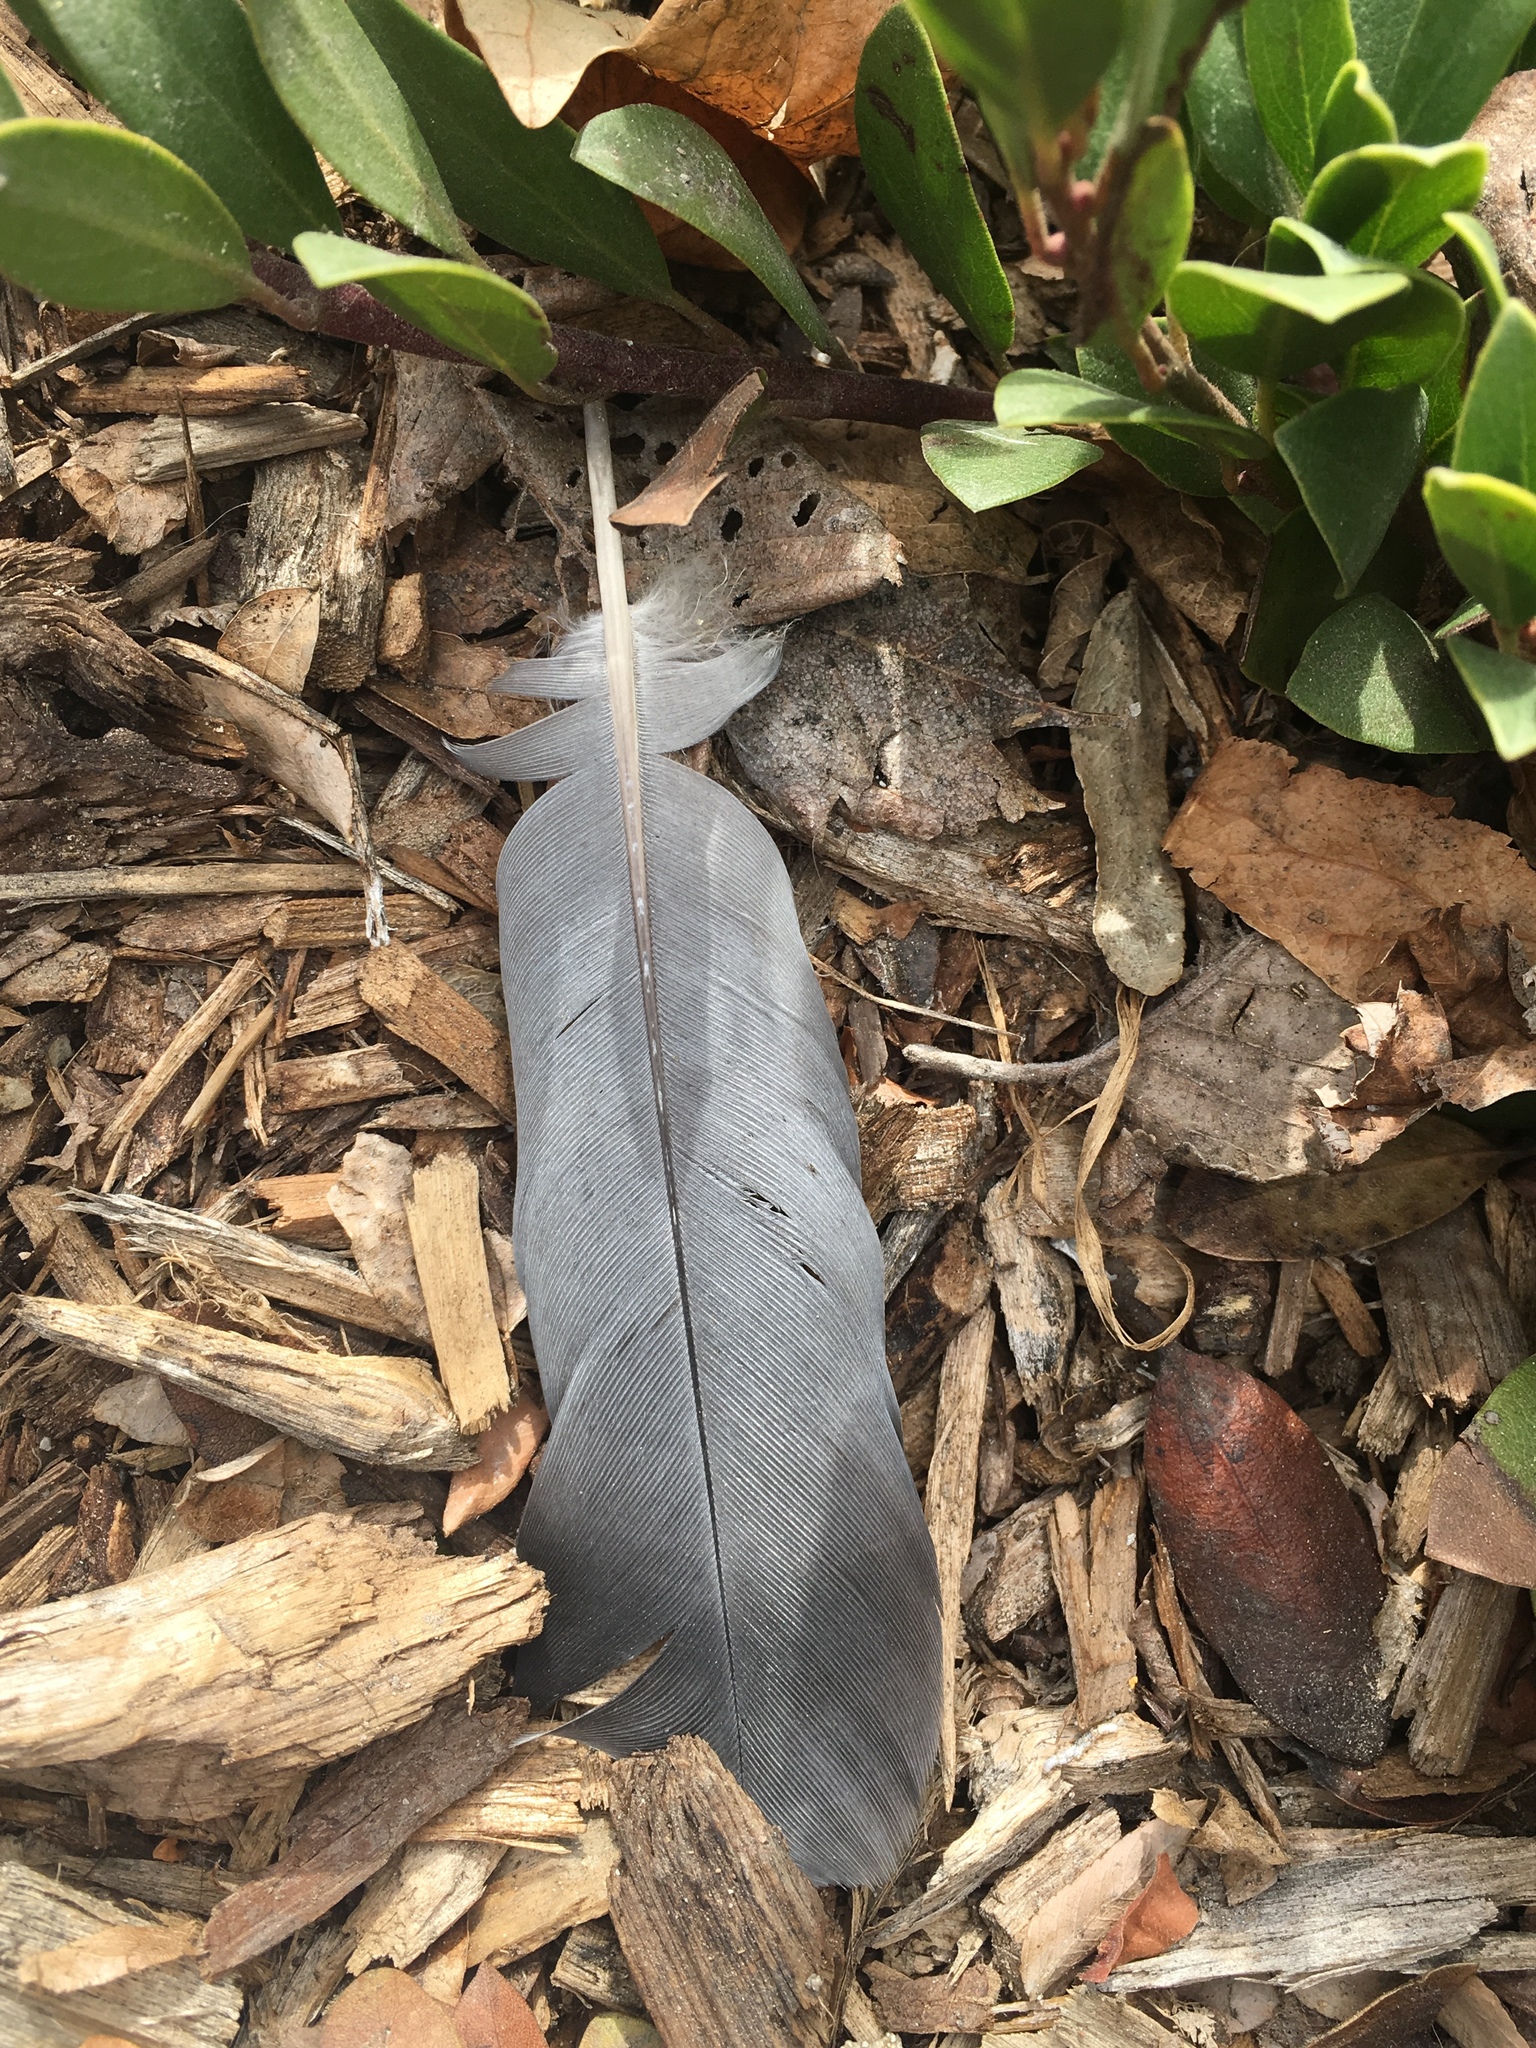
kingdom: Animalia
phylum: Chordata
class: Aves
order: Columbiformes
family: Columbidae
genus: Columba
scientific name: Columba livia
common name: Rock pigeon
